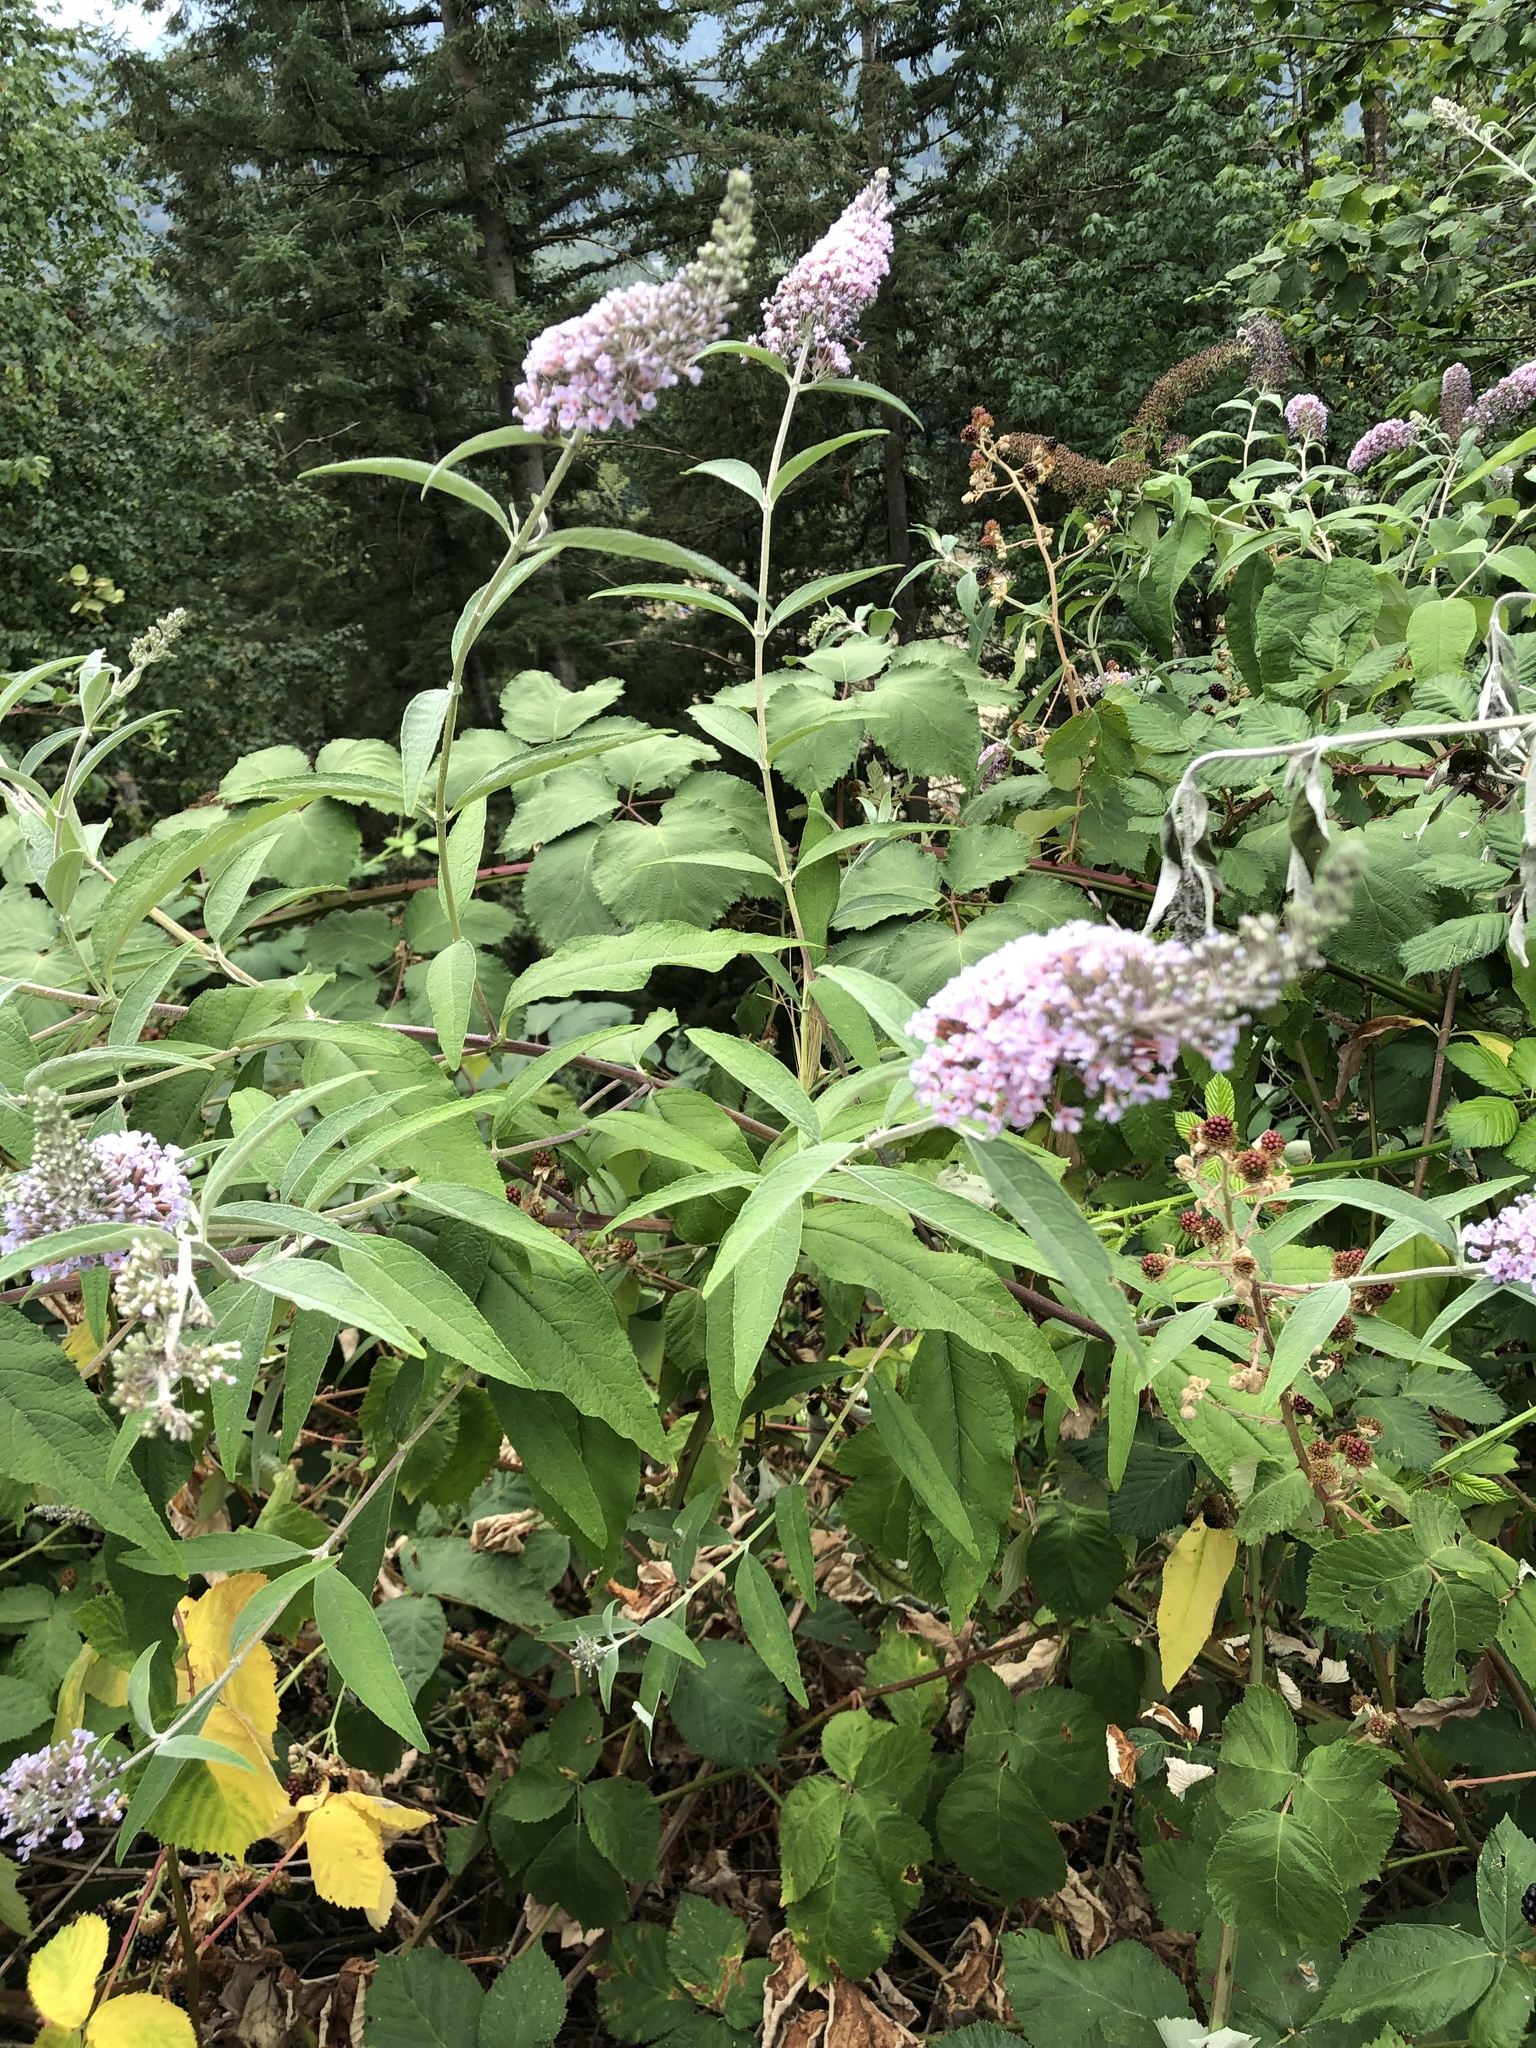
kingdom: Plantae
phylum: Tracheophyta
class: Magnoliopsida
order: Lamiales
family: Scrophulariaceae
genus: Buddleja
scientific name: Buddleja davidii
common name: Butterfly-bush
